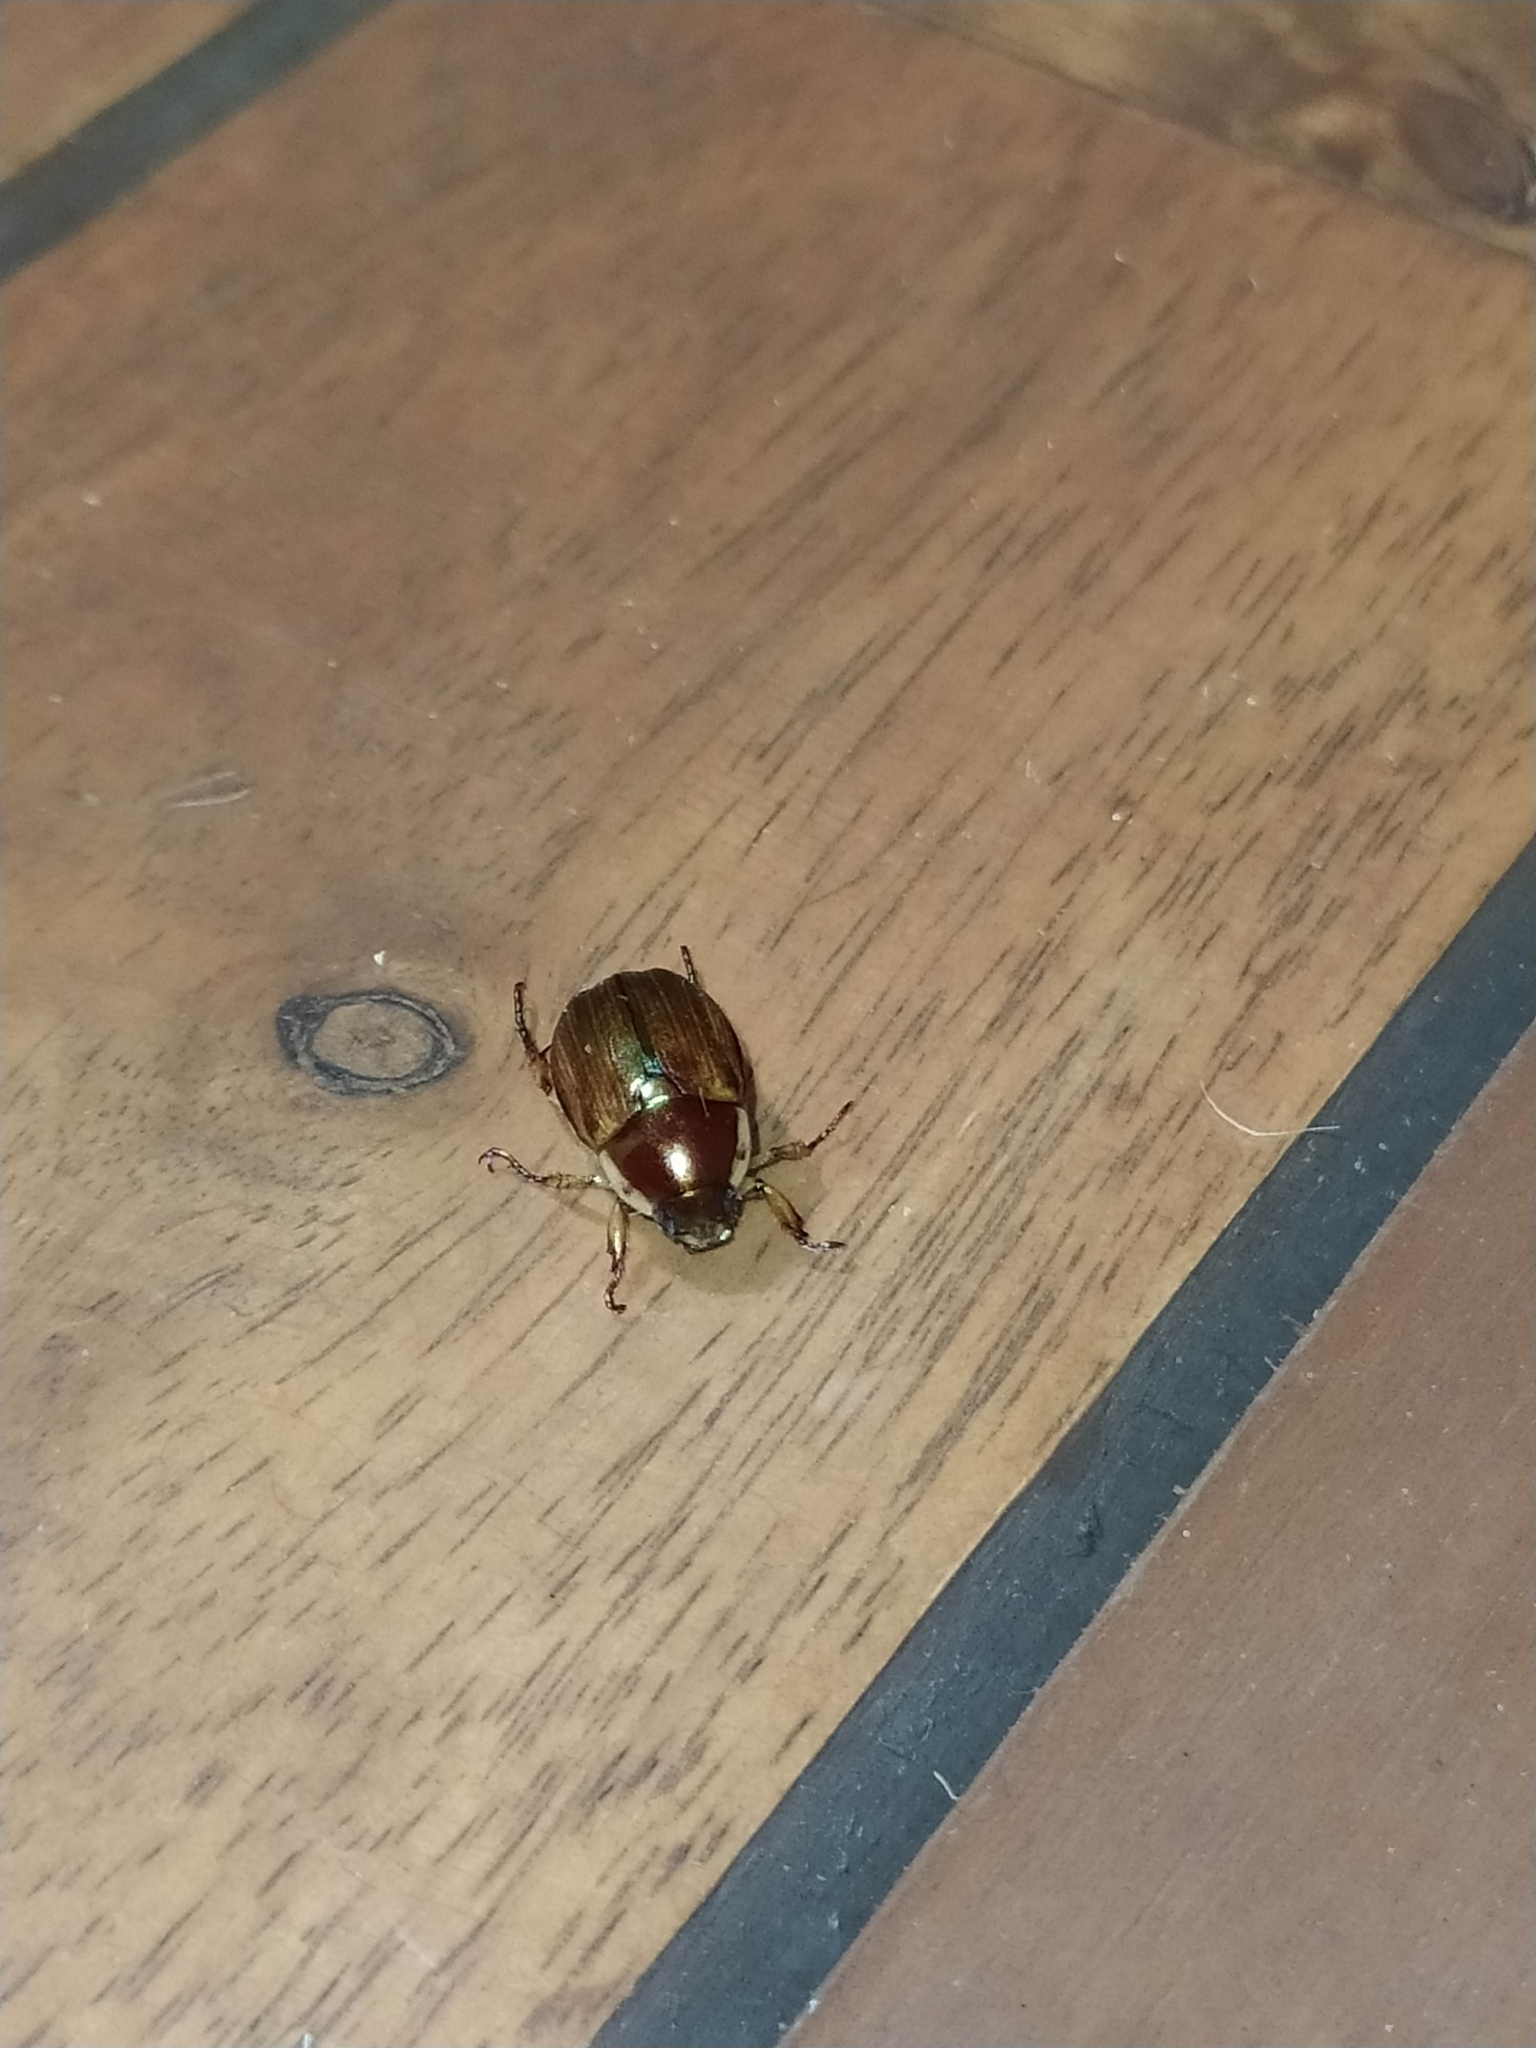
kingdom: Animalia
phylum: Arthropoda
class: Insecta
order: Coleoptera
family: Scarabaeidae
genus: Anomala
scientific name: Anomala
